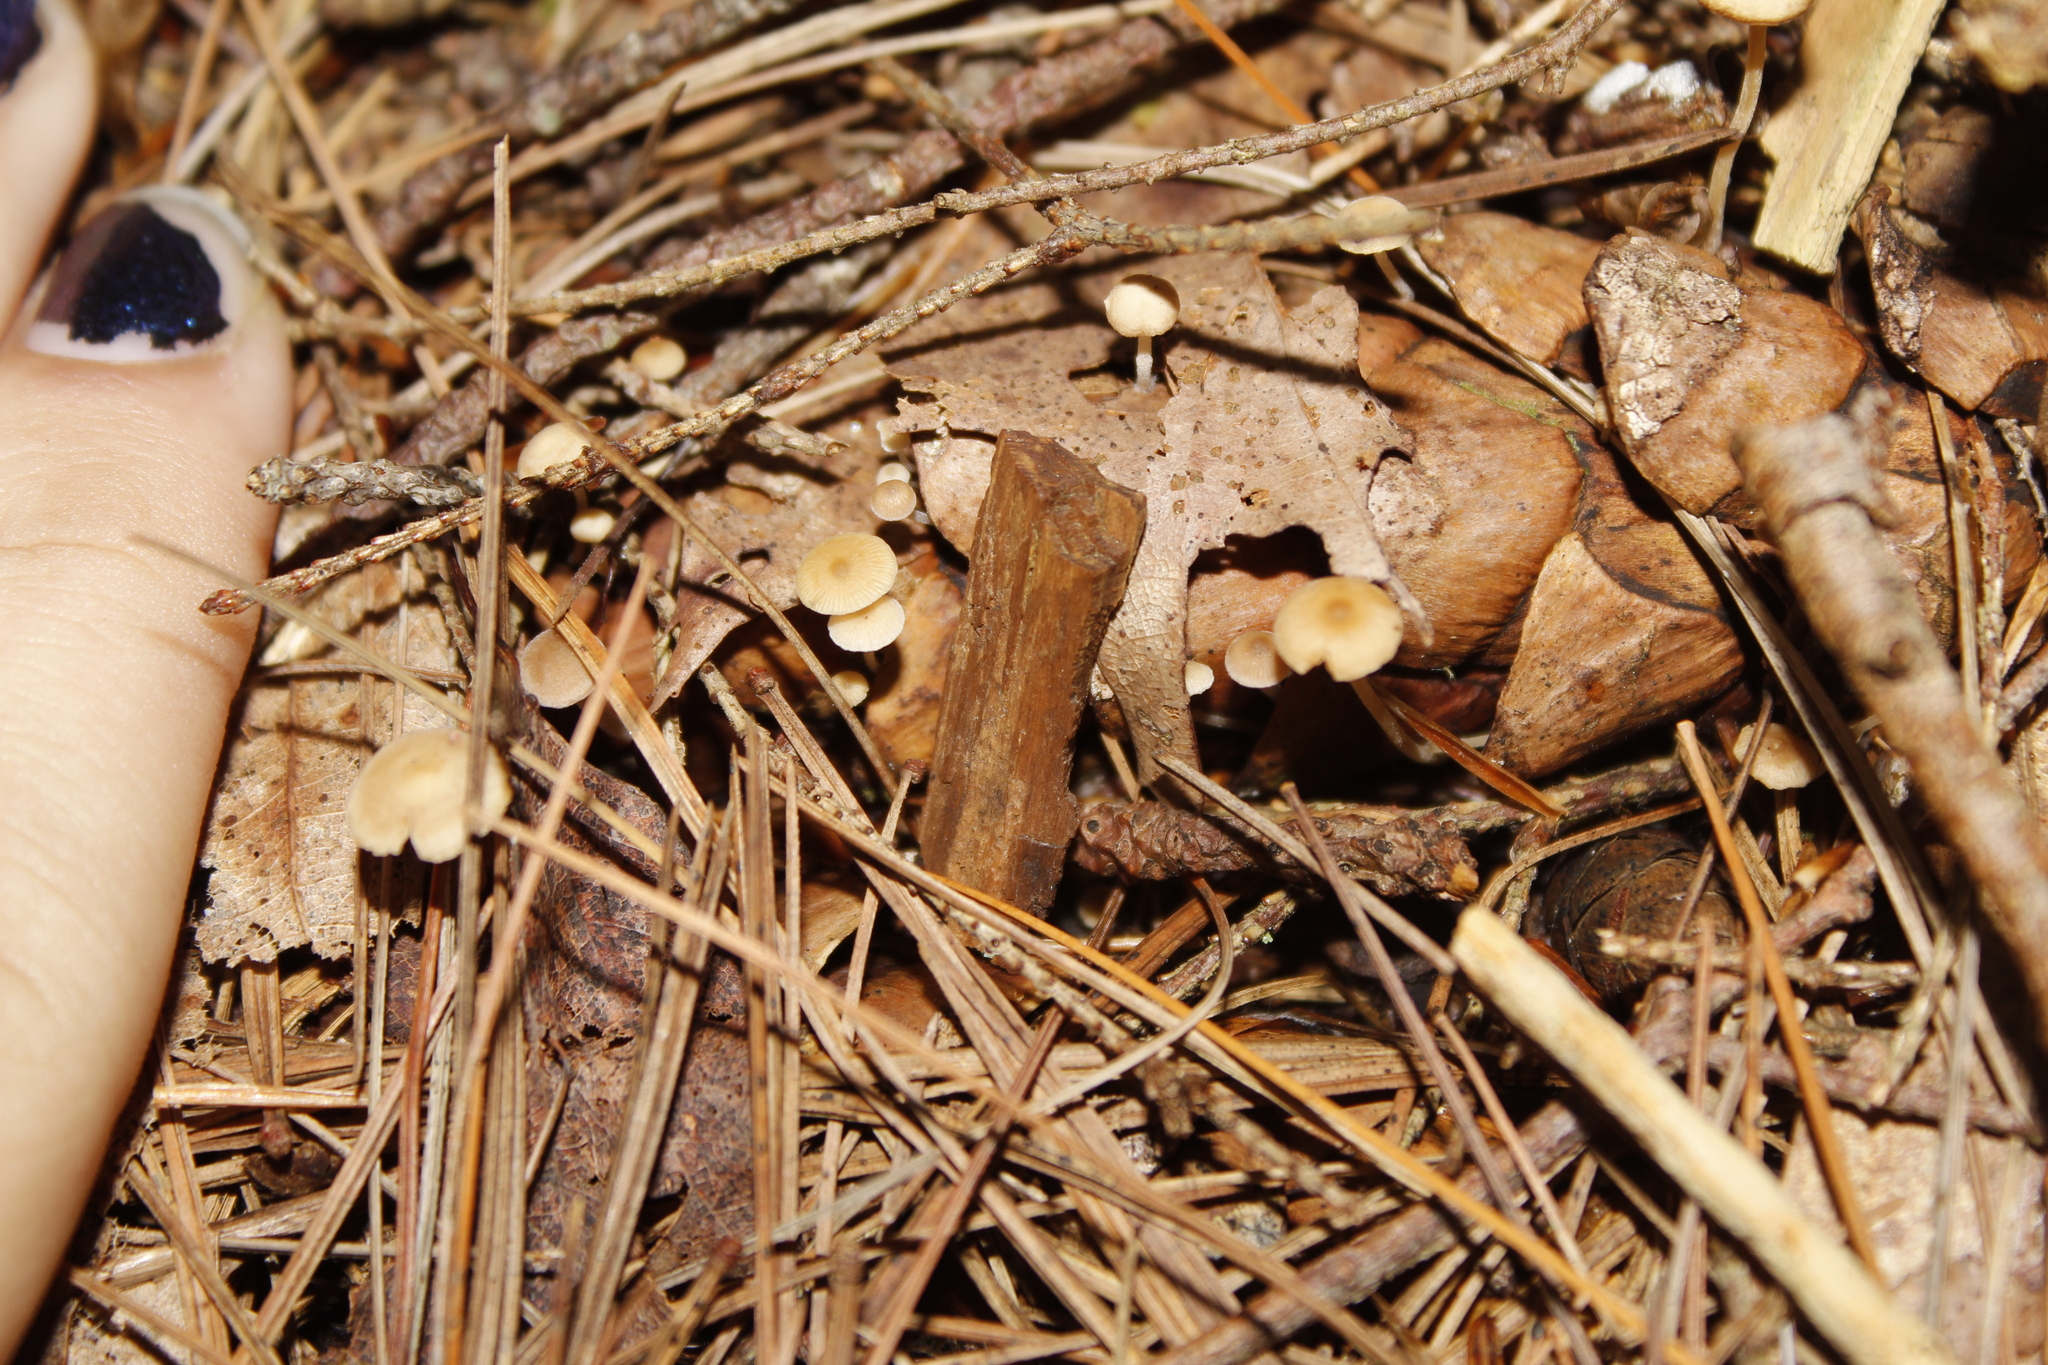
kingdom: Fungi
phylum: Basidiomycota
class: Agaricomycetes
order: Agaricales
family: Marasmiaceae
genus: Baeospora
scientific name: Baeospora myosura
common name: Conifercone cap
